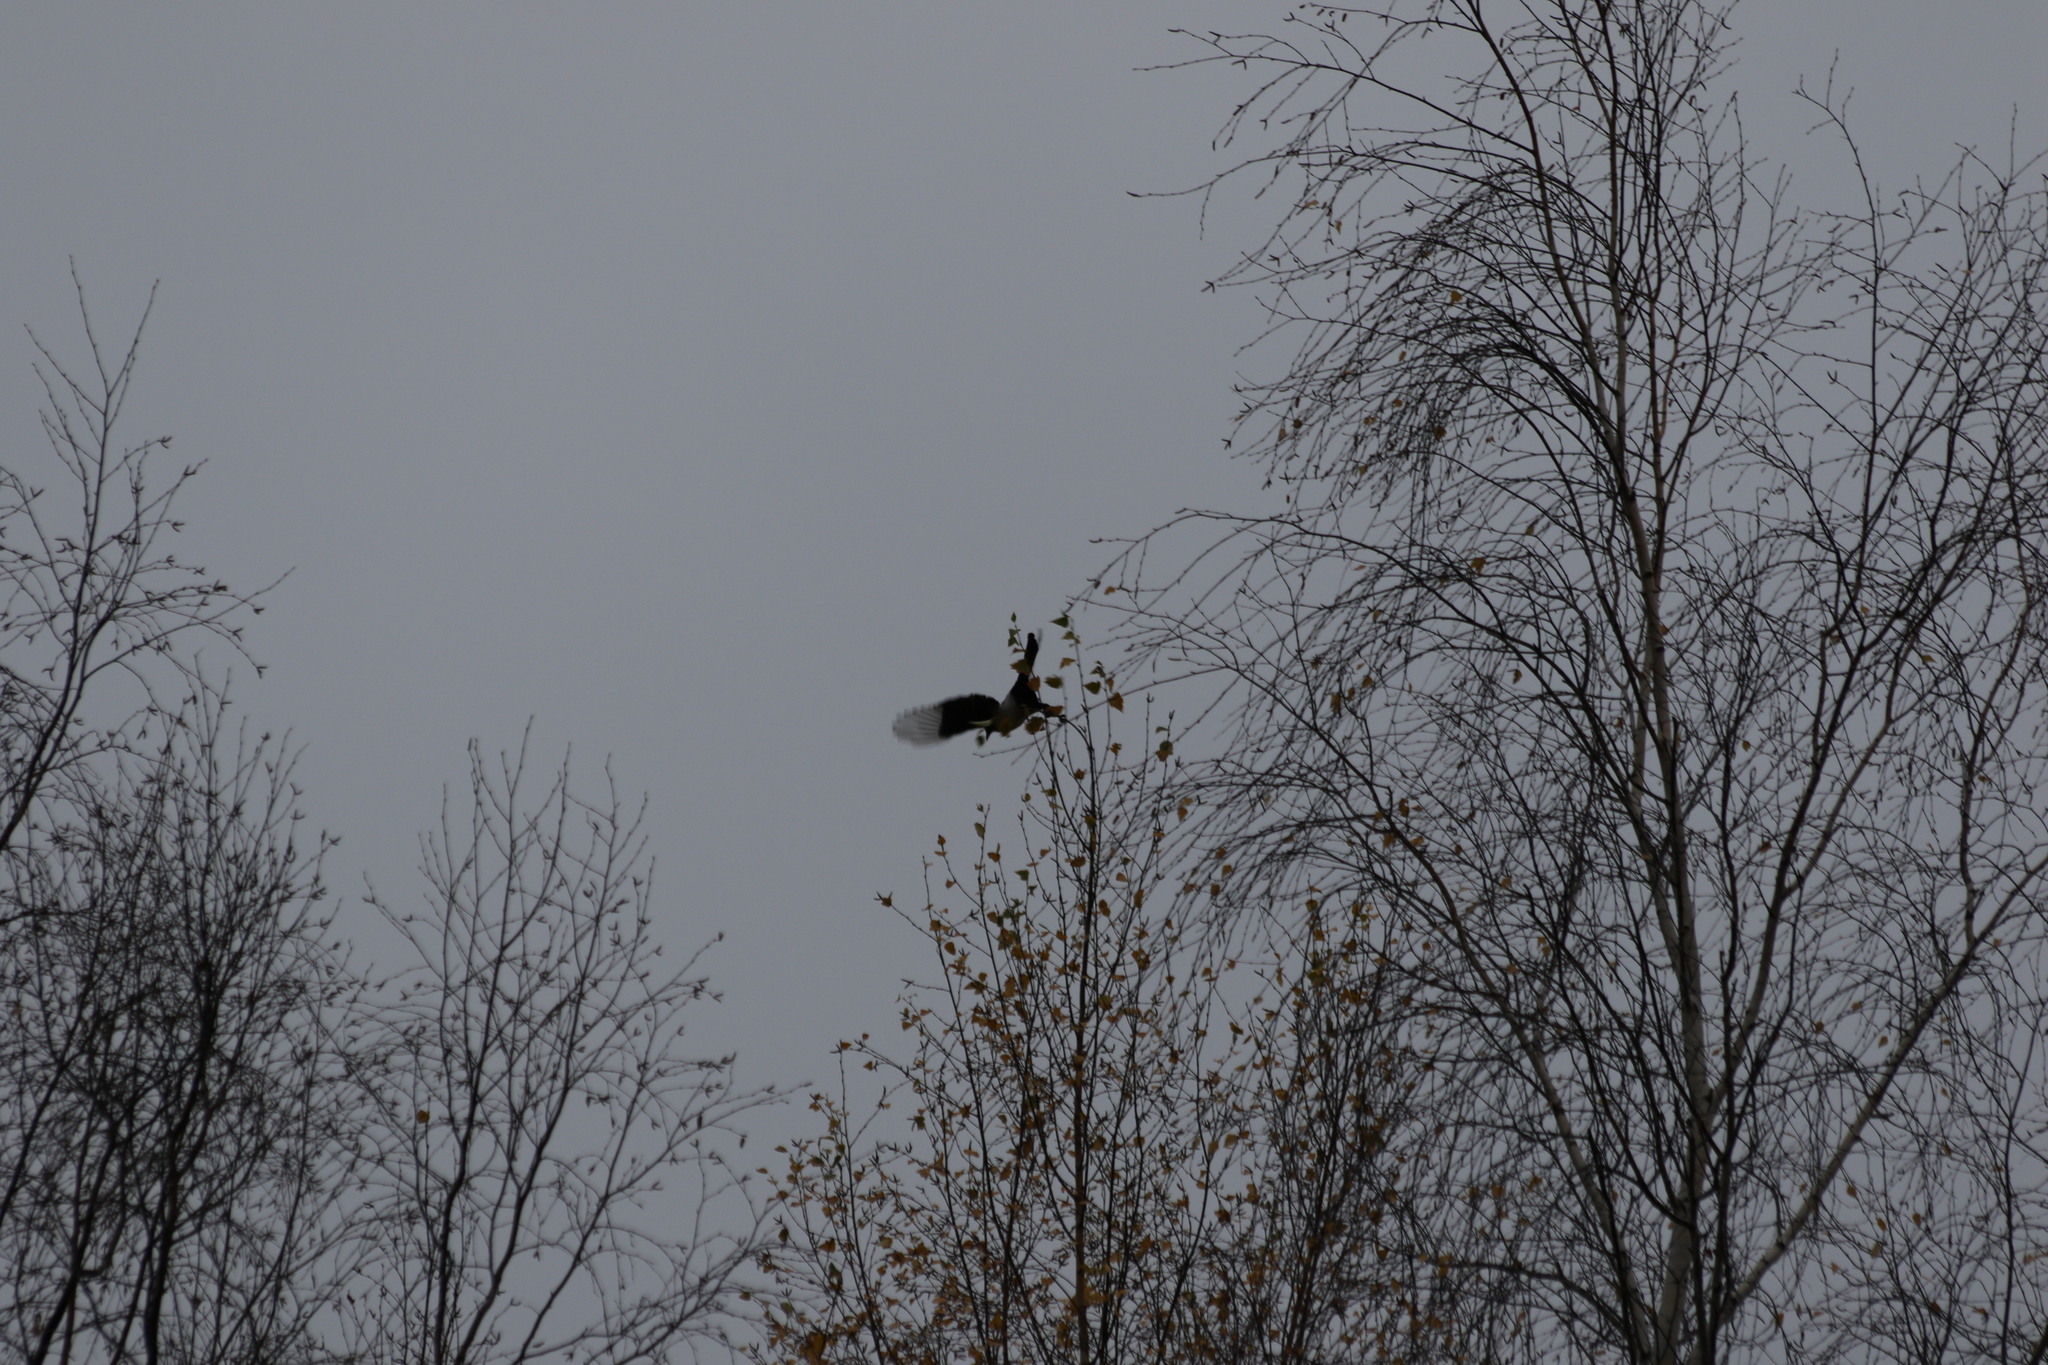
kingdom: Animalia
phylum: Chordata
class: Aves
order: Passeriformes
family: Corvidae
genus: Pica
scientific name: Pica pica
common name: Eurasian magpie
